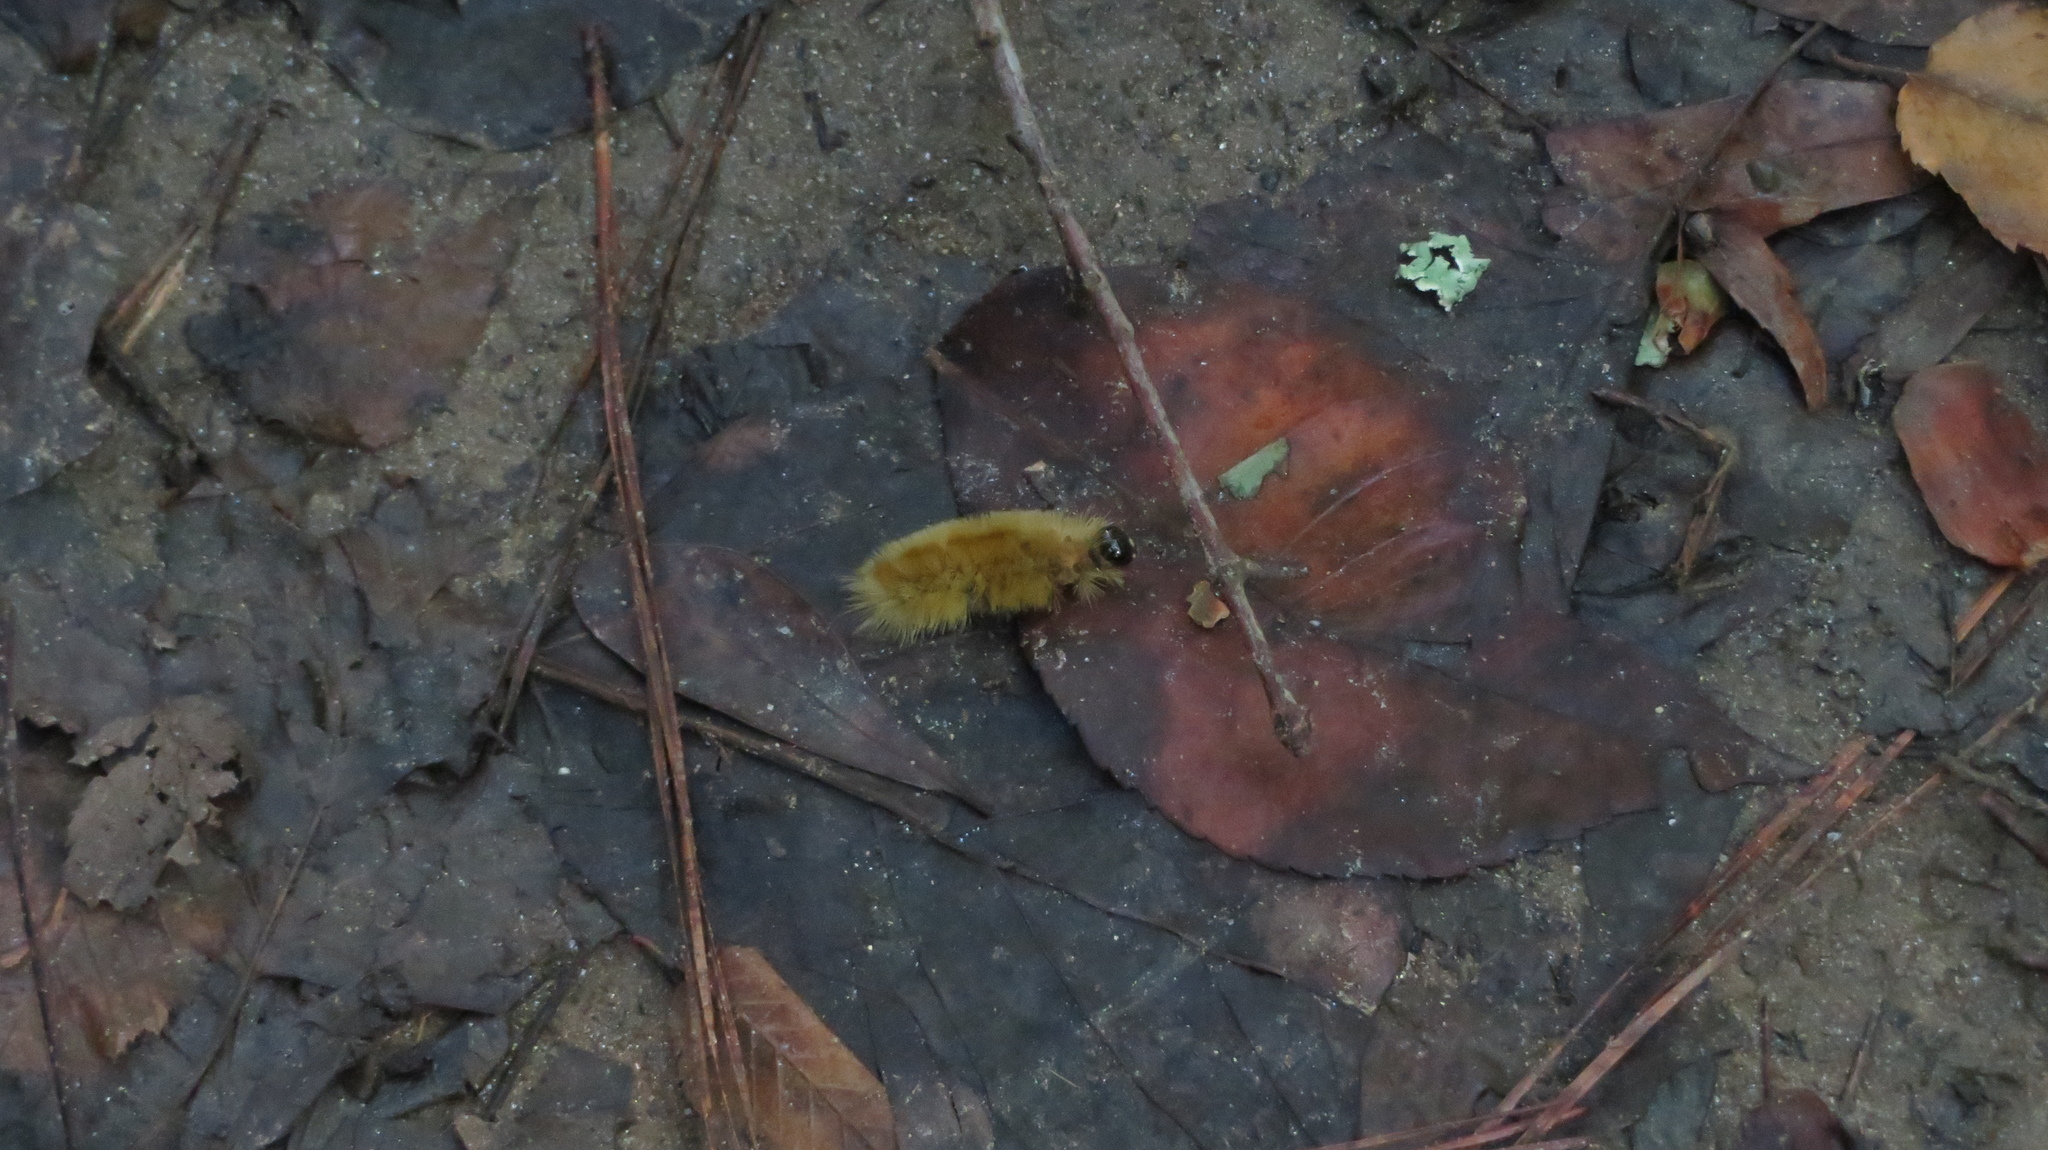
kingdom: Animalia
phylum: Arthropoda
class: Insecta
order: Lepidoptera
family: Erebidae
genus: Halysidota
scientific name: Halysidota tessellaris
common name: Banded tussock moth
